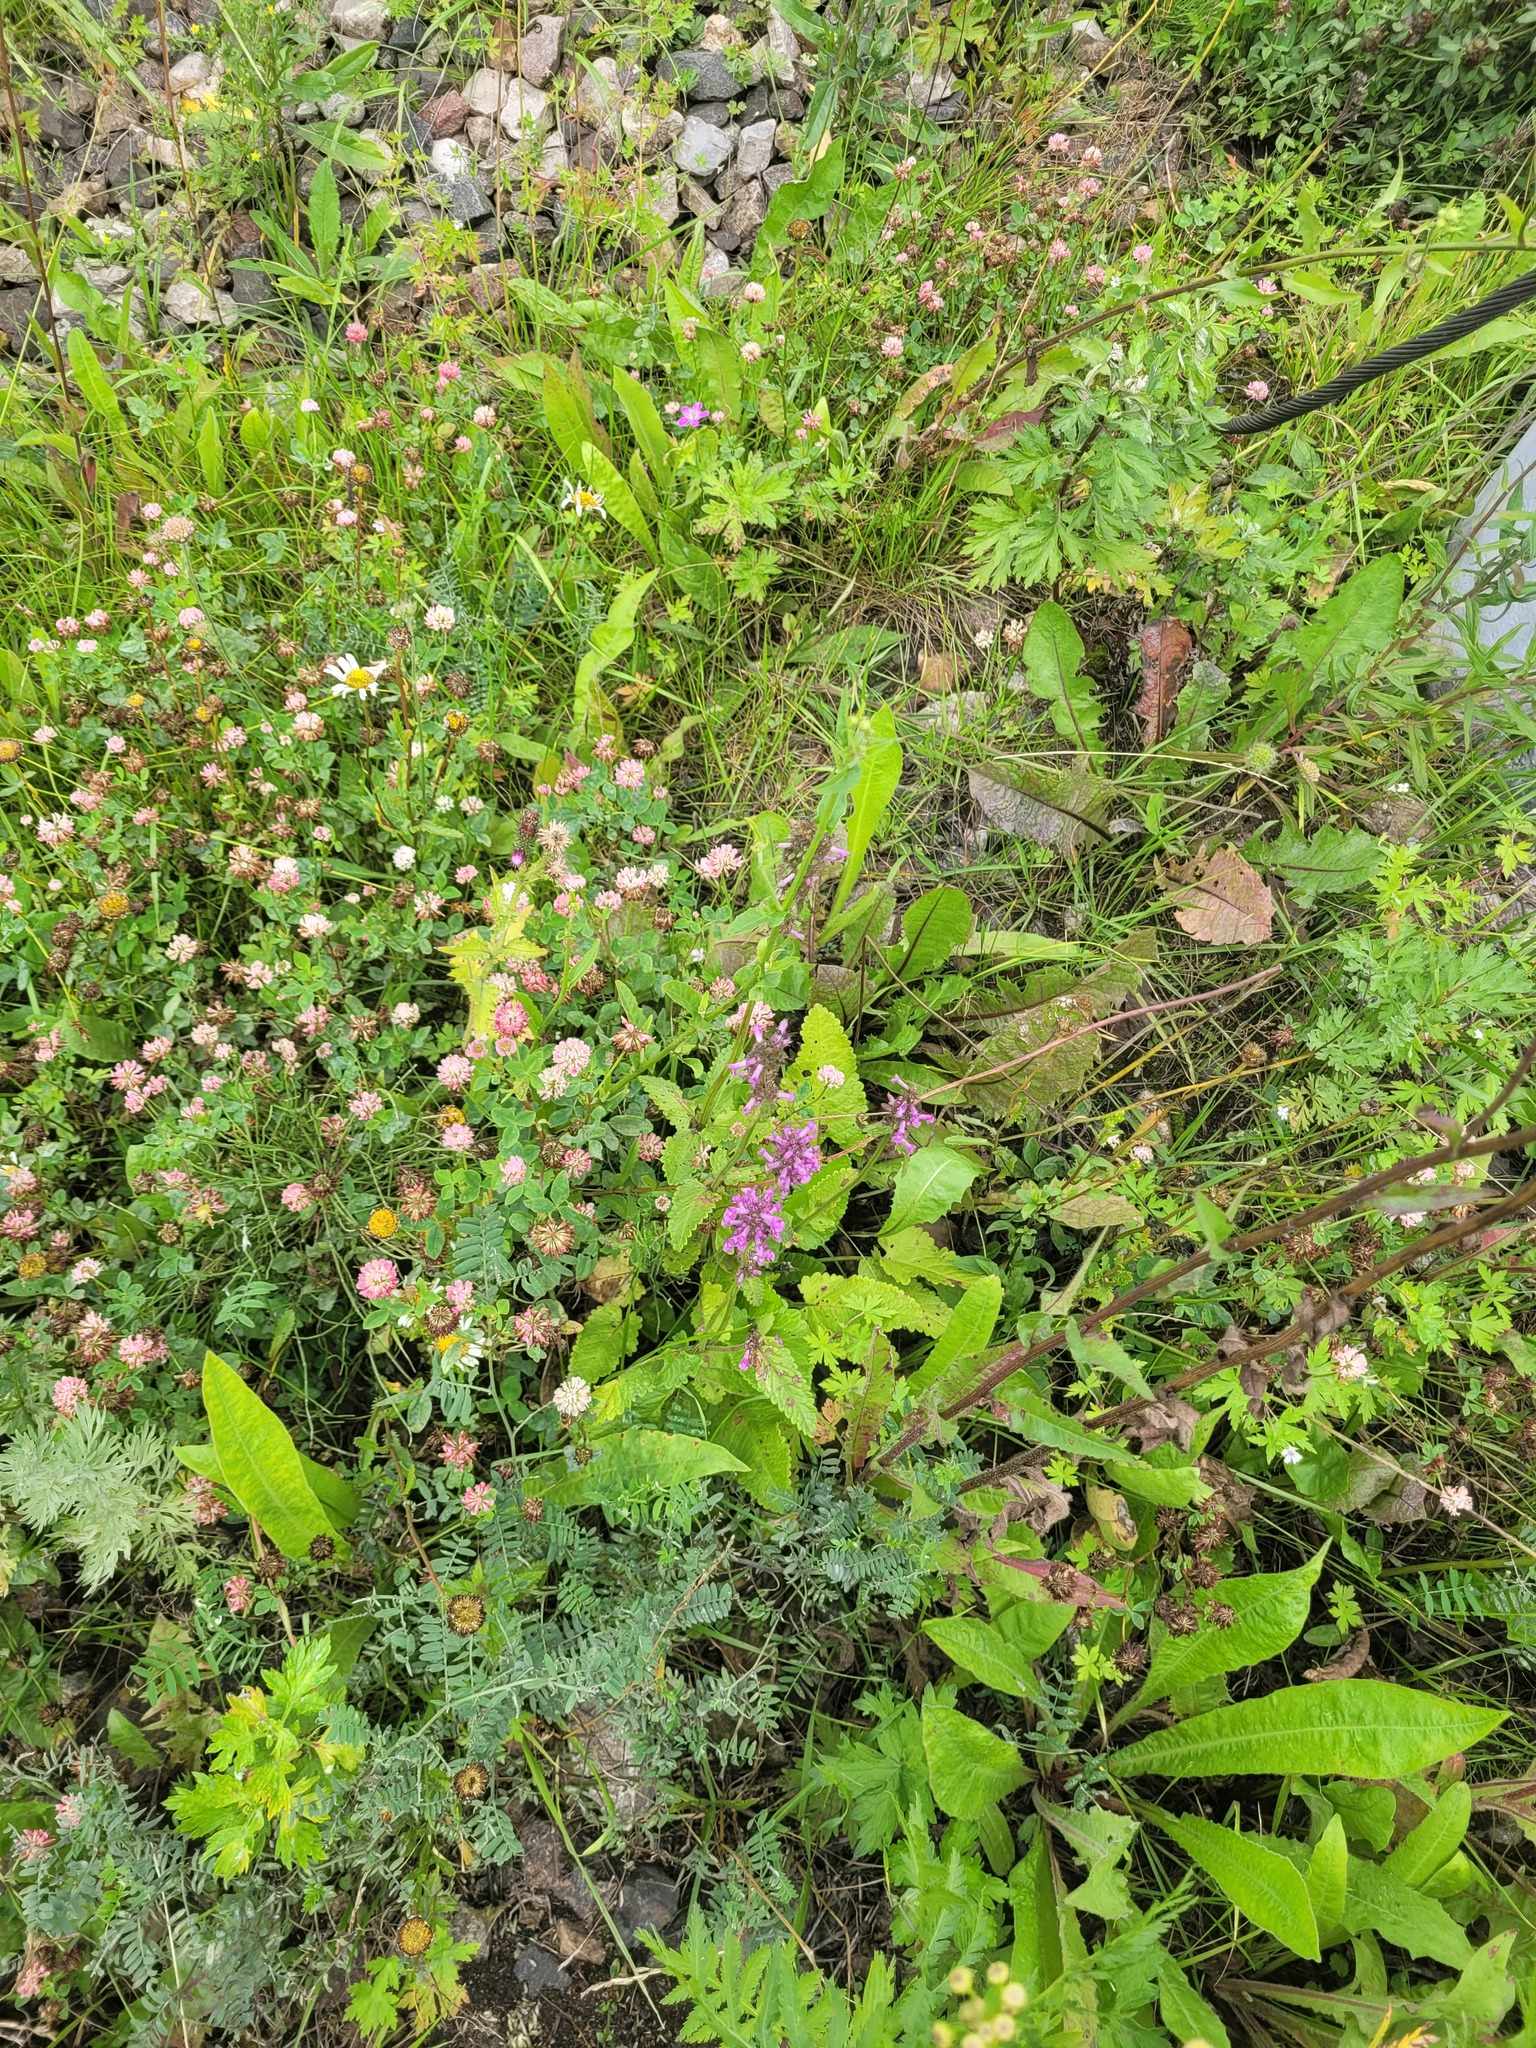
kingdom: Plantae
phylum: Tracheophyta
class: Magnoliopsida
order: Lamiales
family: Lamiaceae
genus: Betonica
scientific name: Betonica officinalis
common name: Bishop's-wort
